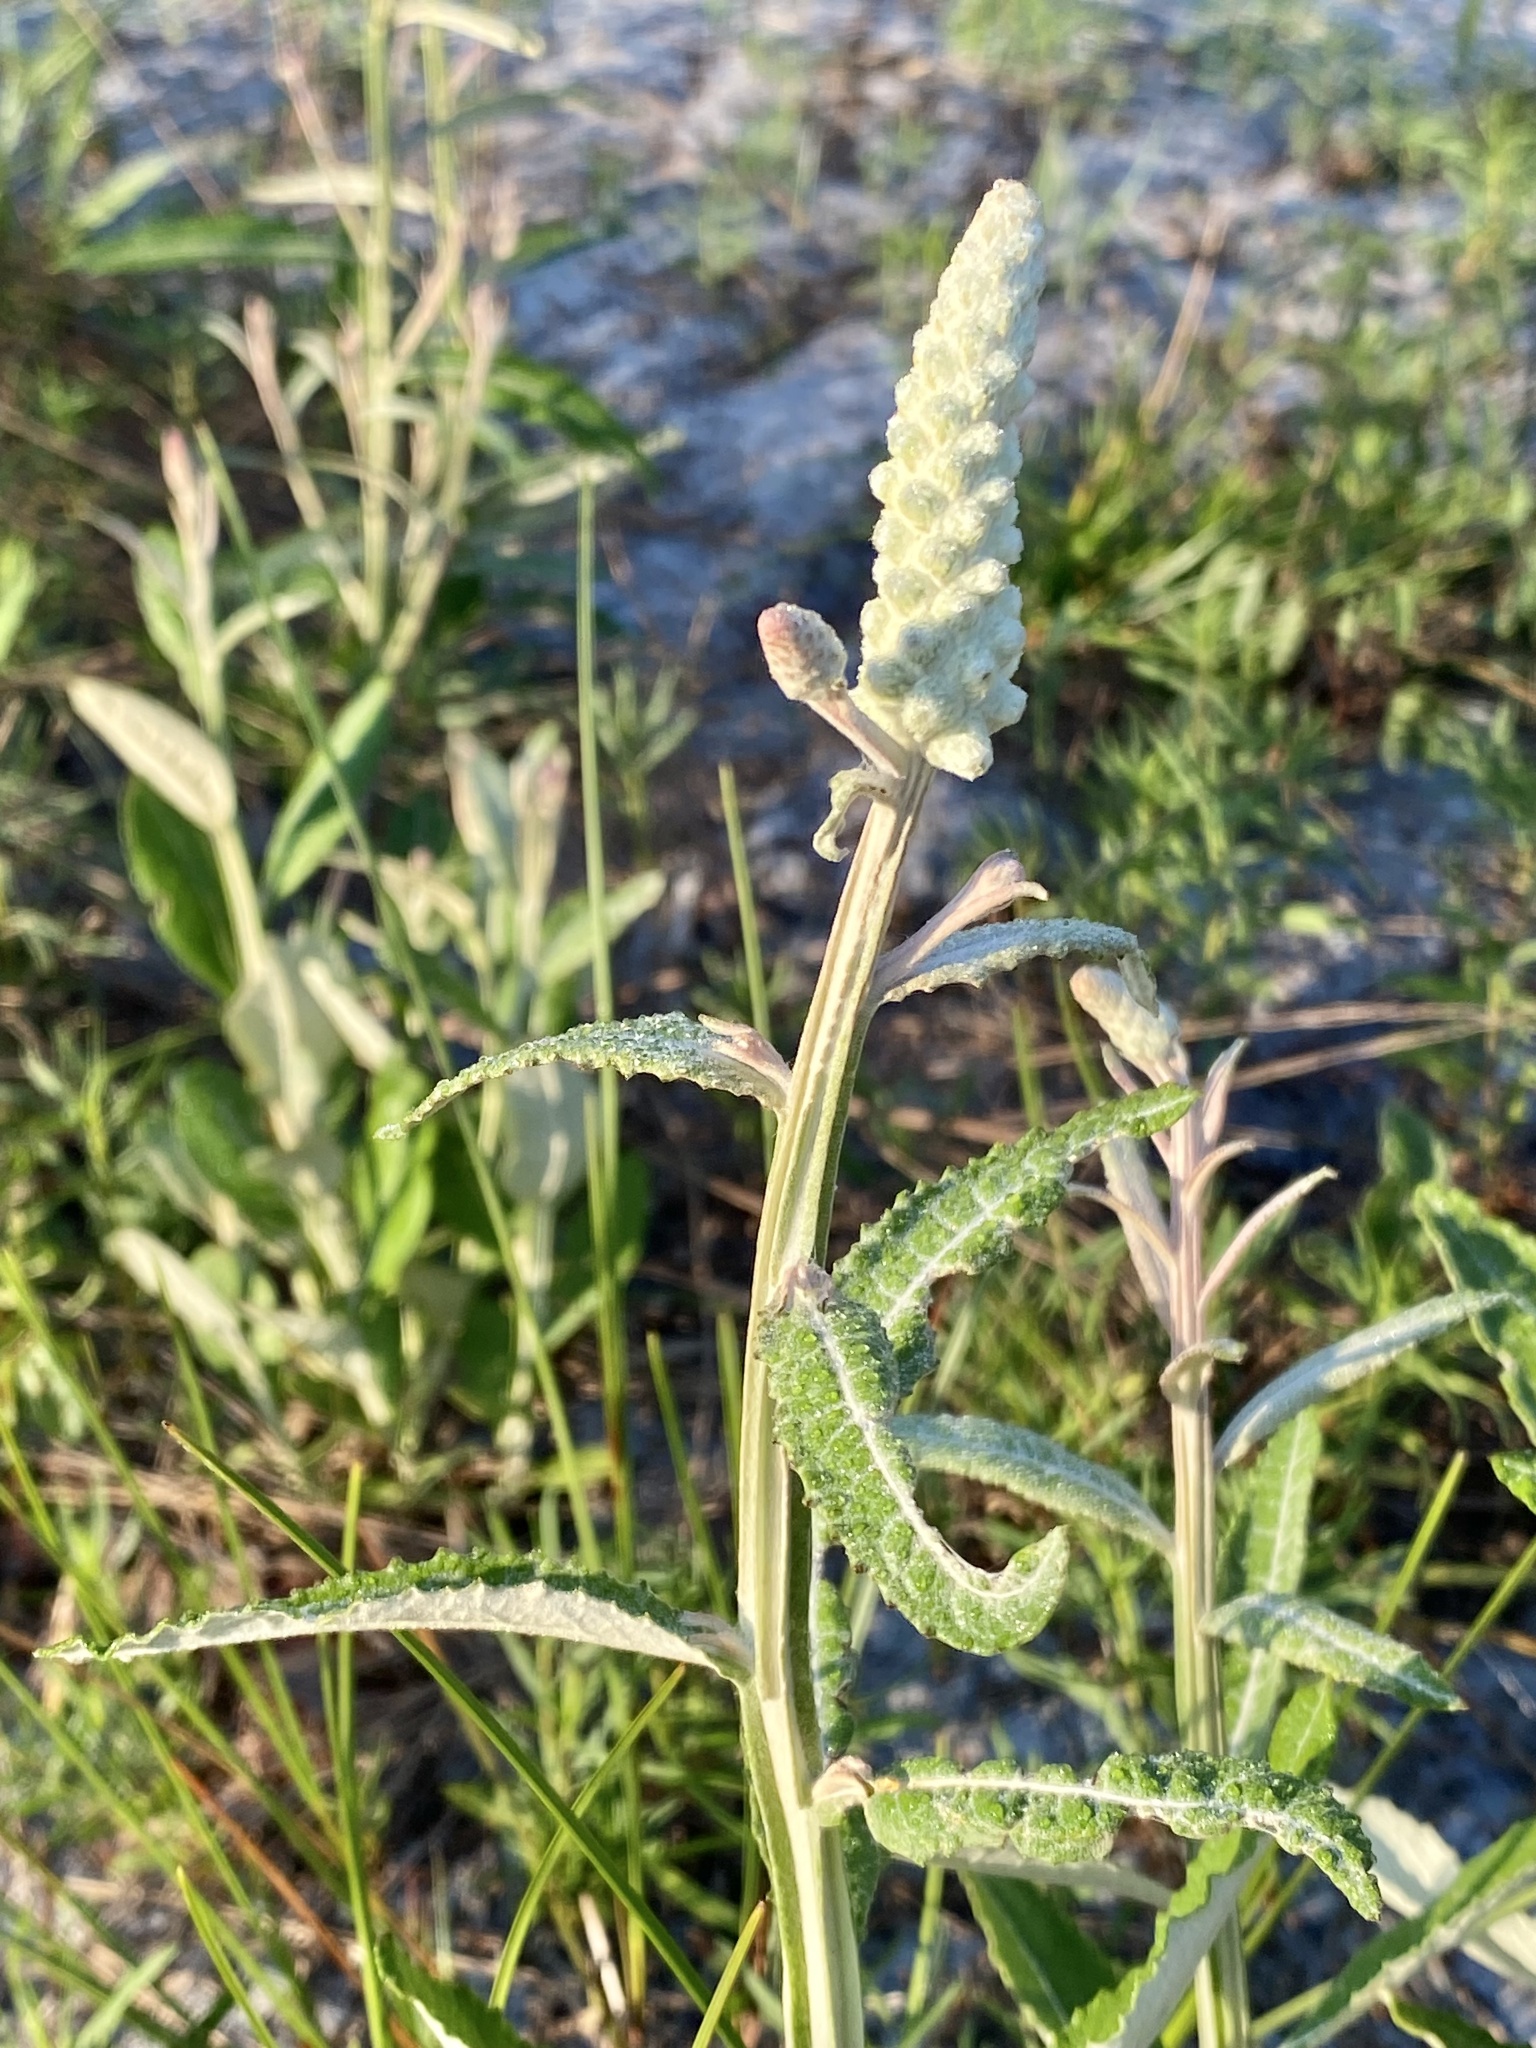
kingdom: Plantae
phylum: Tracheophyta
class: Magnoliopsida
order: Asterales
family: Asteraceae
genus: Pterocaulon
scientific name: Pterocaulon pycnostachyum
